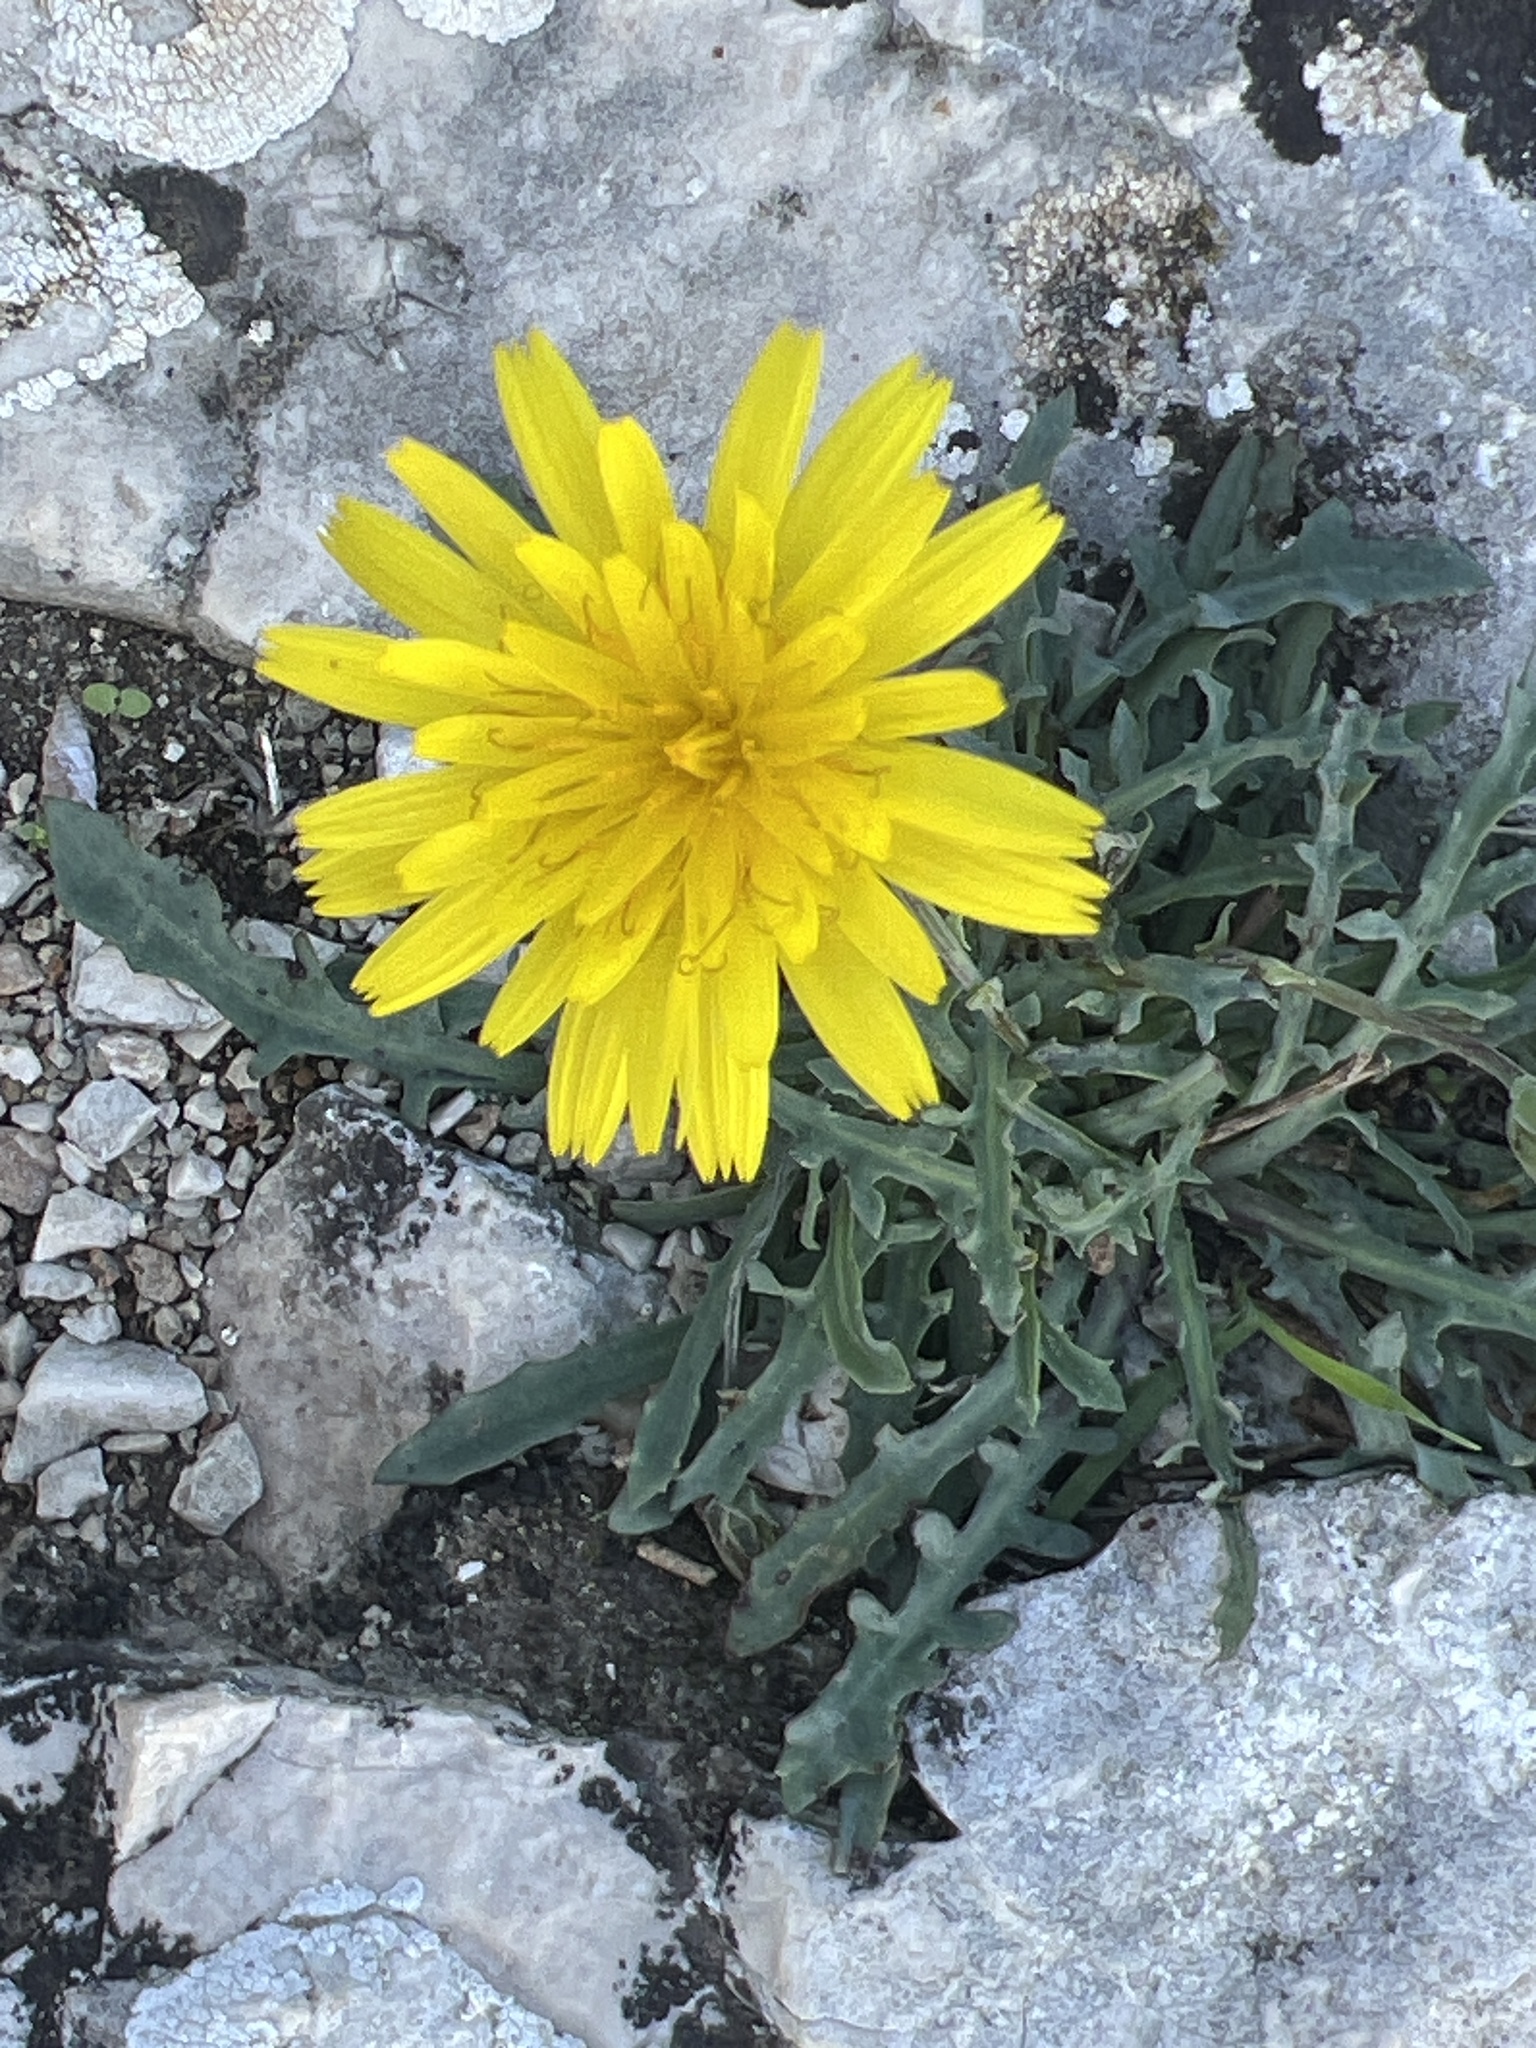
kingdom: Plantae
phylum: Tracheophyta
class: Magnoliopsida
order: Asterales
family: Asteraceae
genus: Reichardia
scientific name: Reichardia picroides
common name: Common brighteyes
